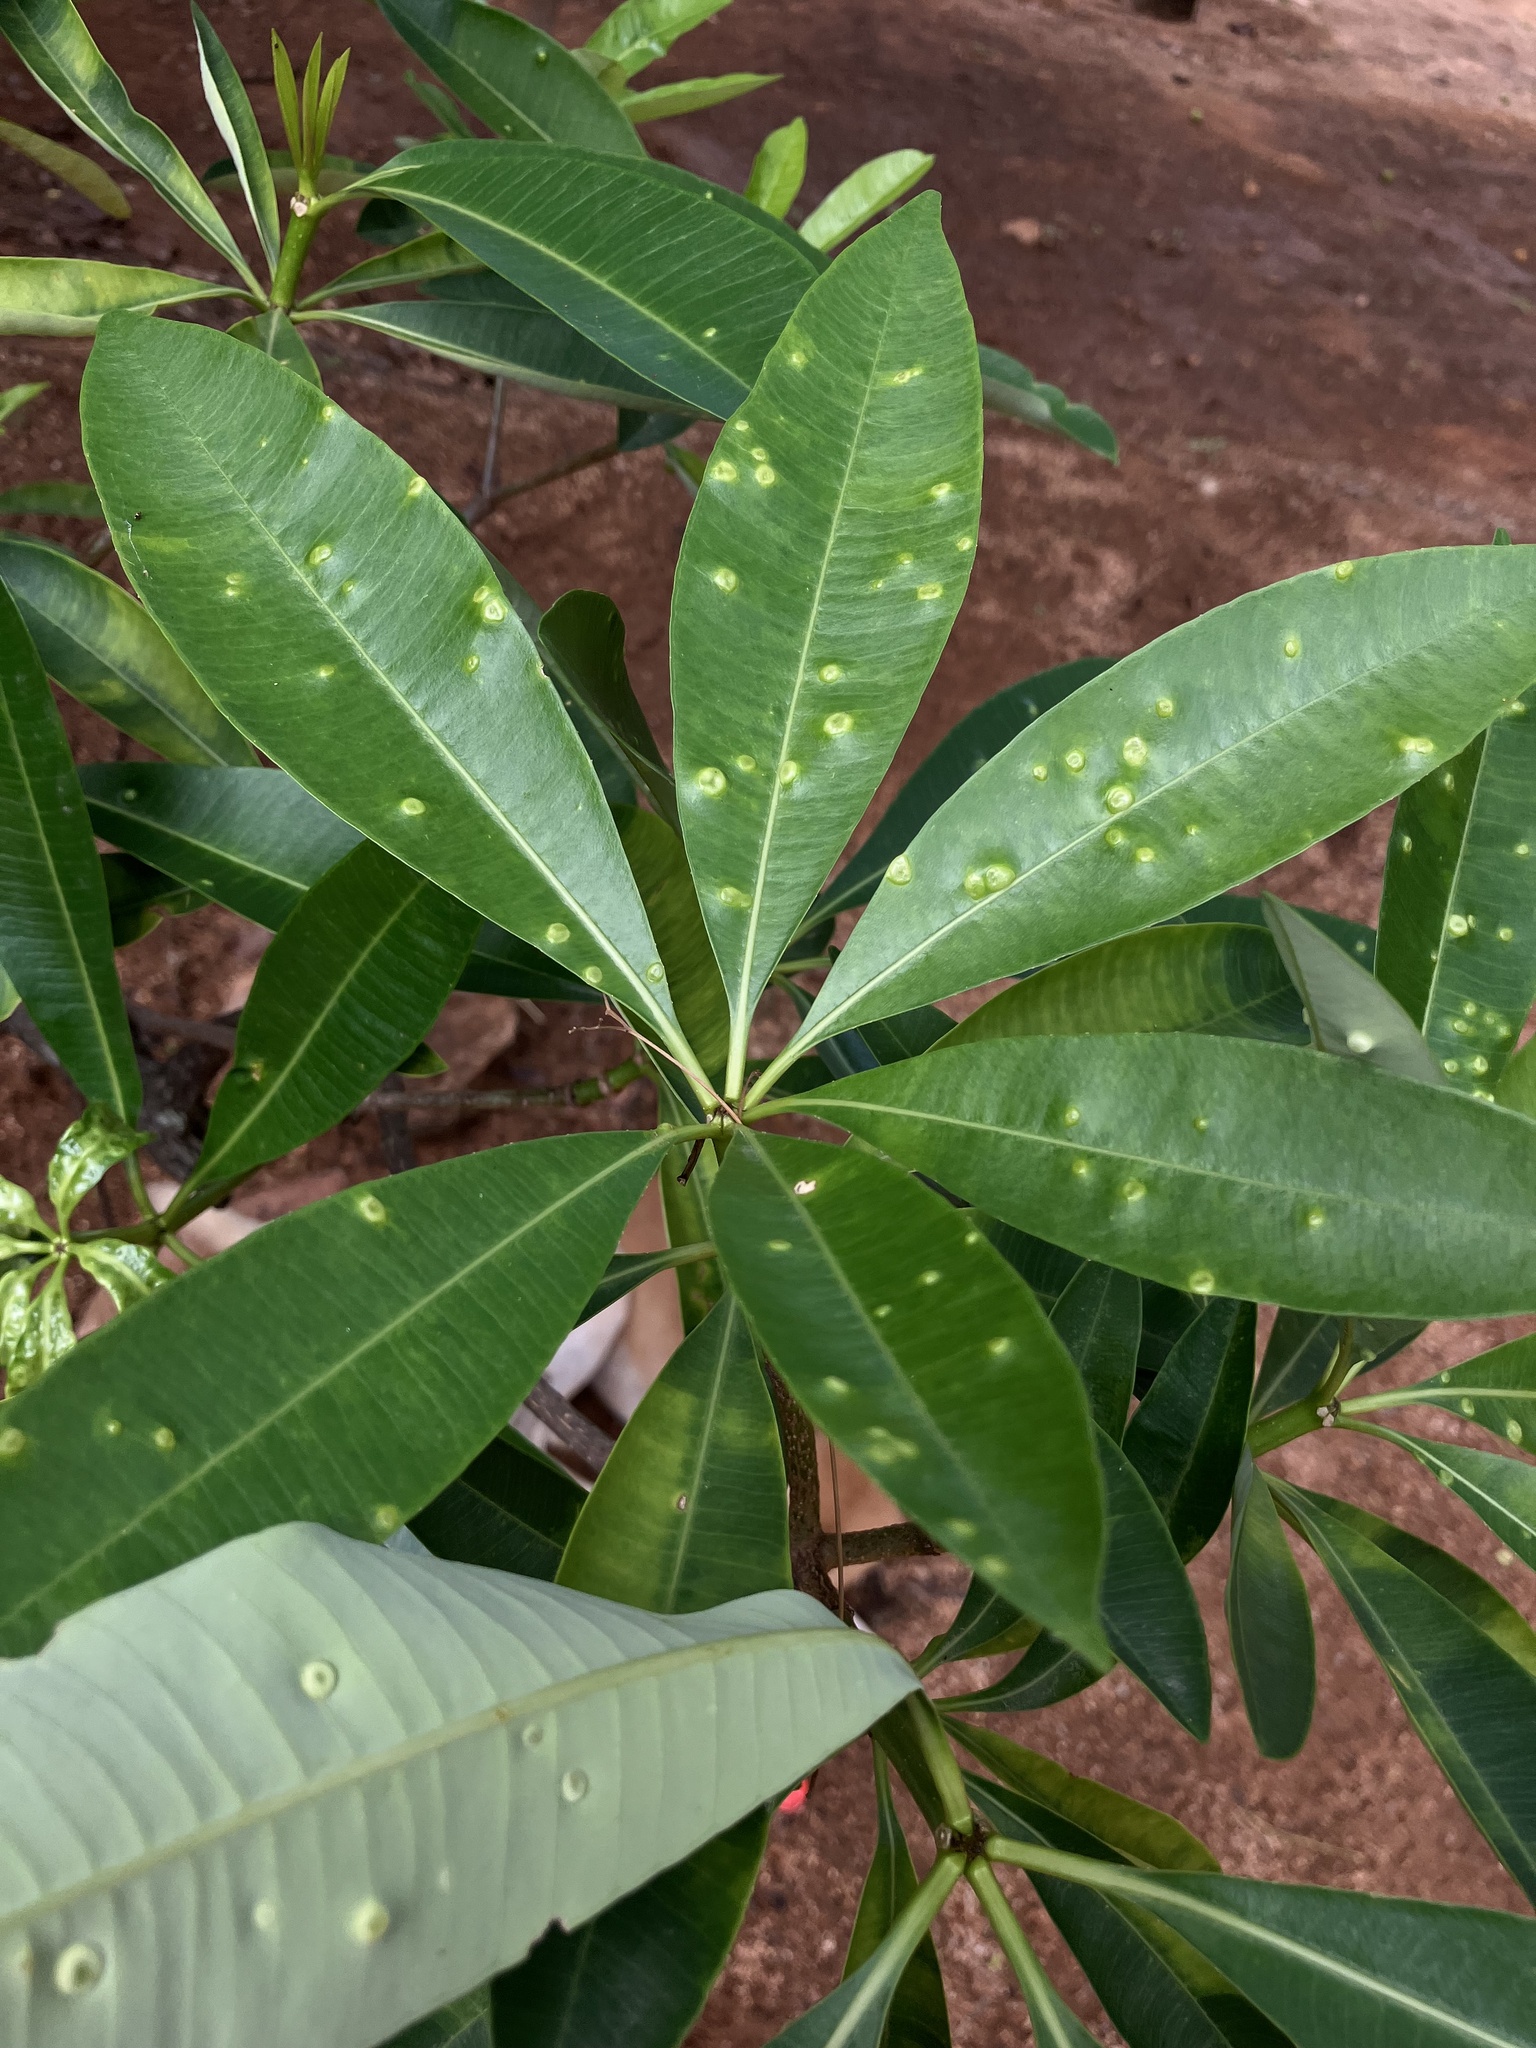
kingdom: Animalia
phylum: Arthropoda
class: Insecta
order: Hemiptera
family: Phacopteronidae
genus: Pseudophacopteron
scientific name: Pseudophacopteron tuberculatum
